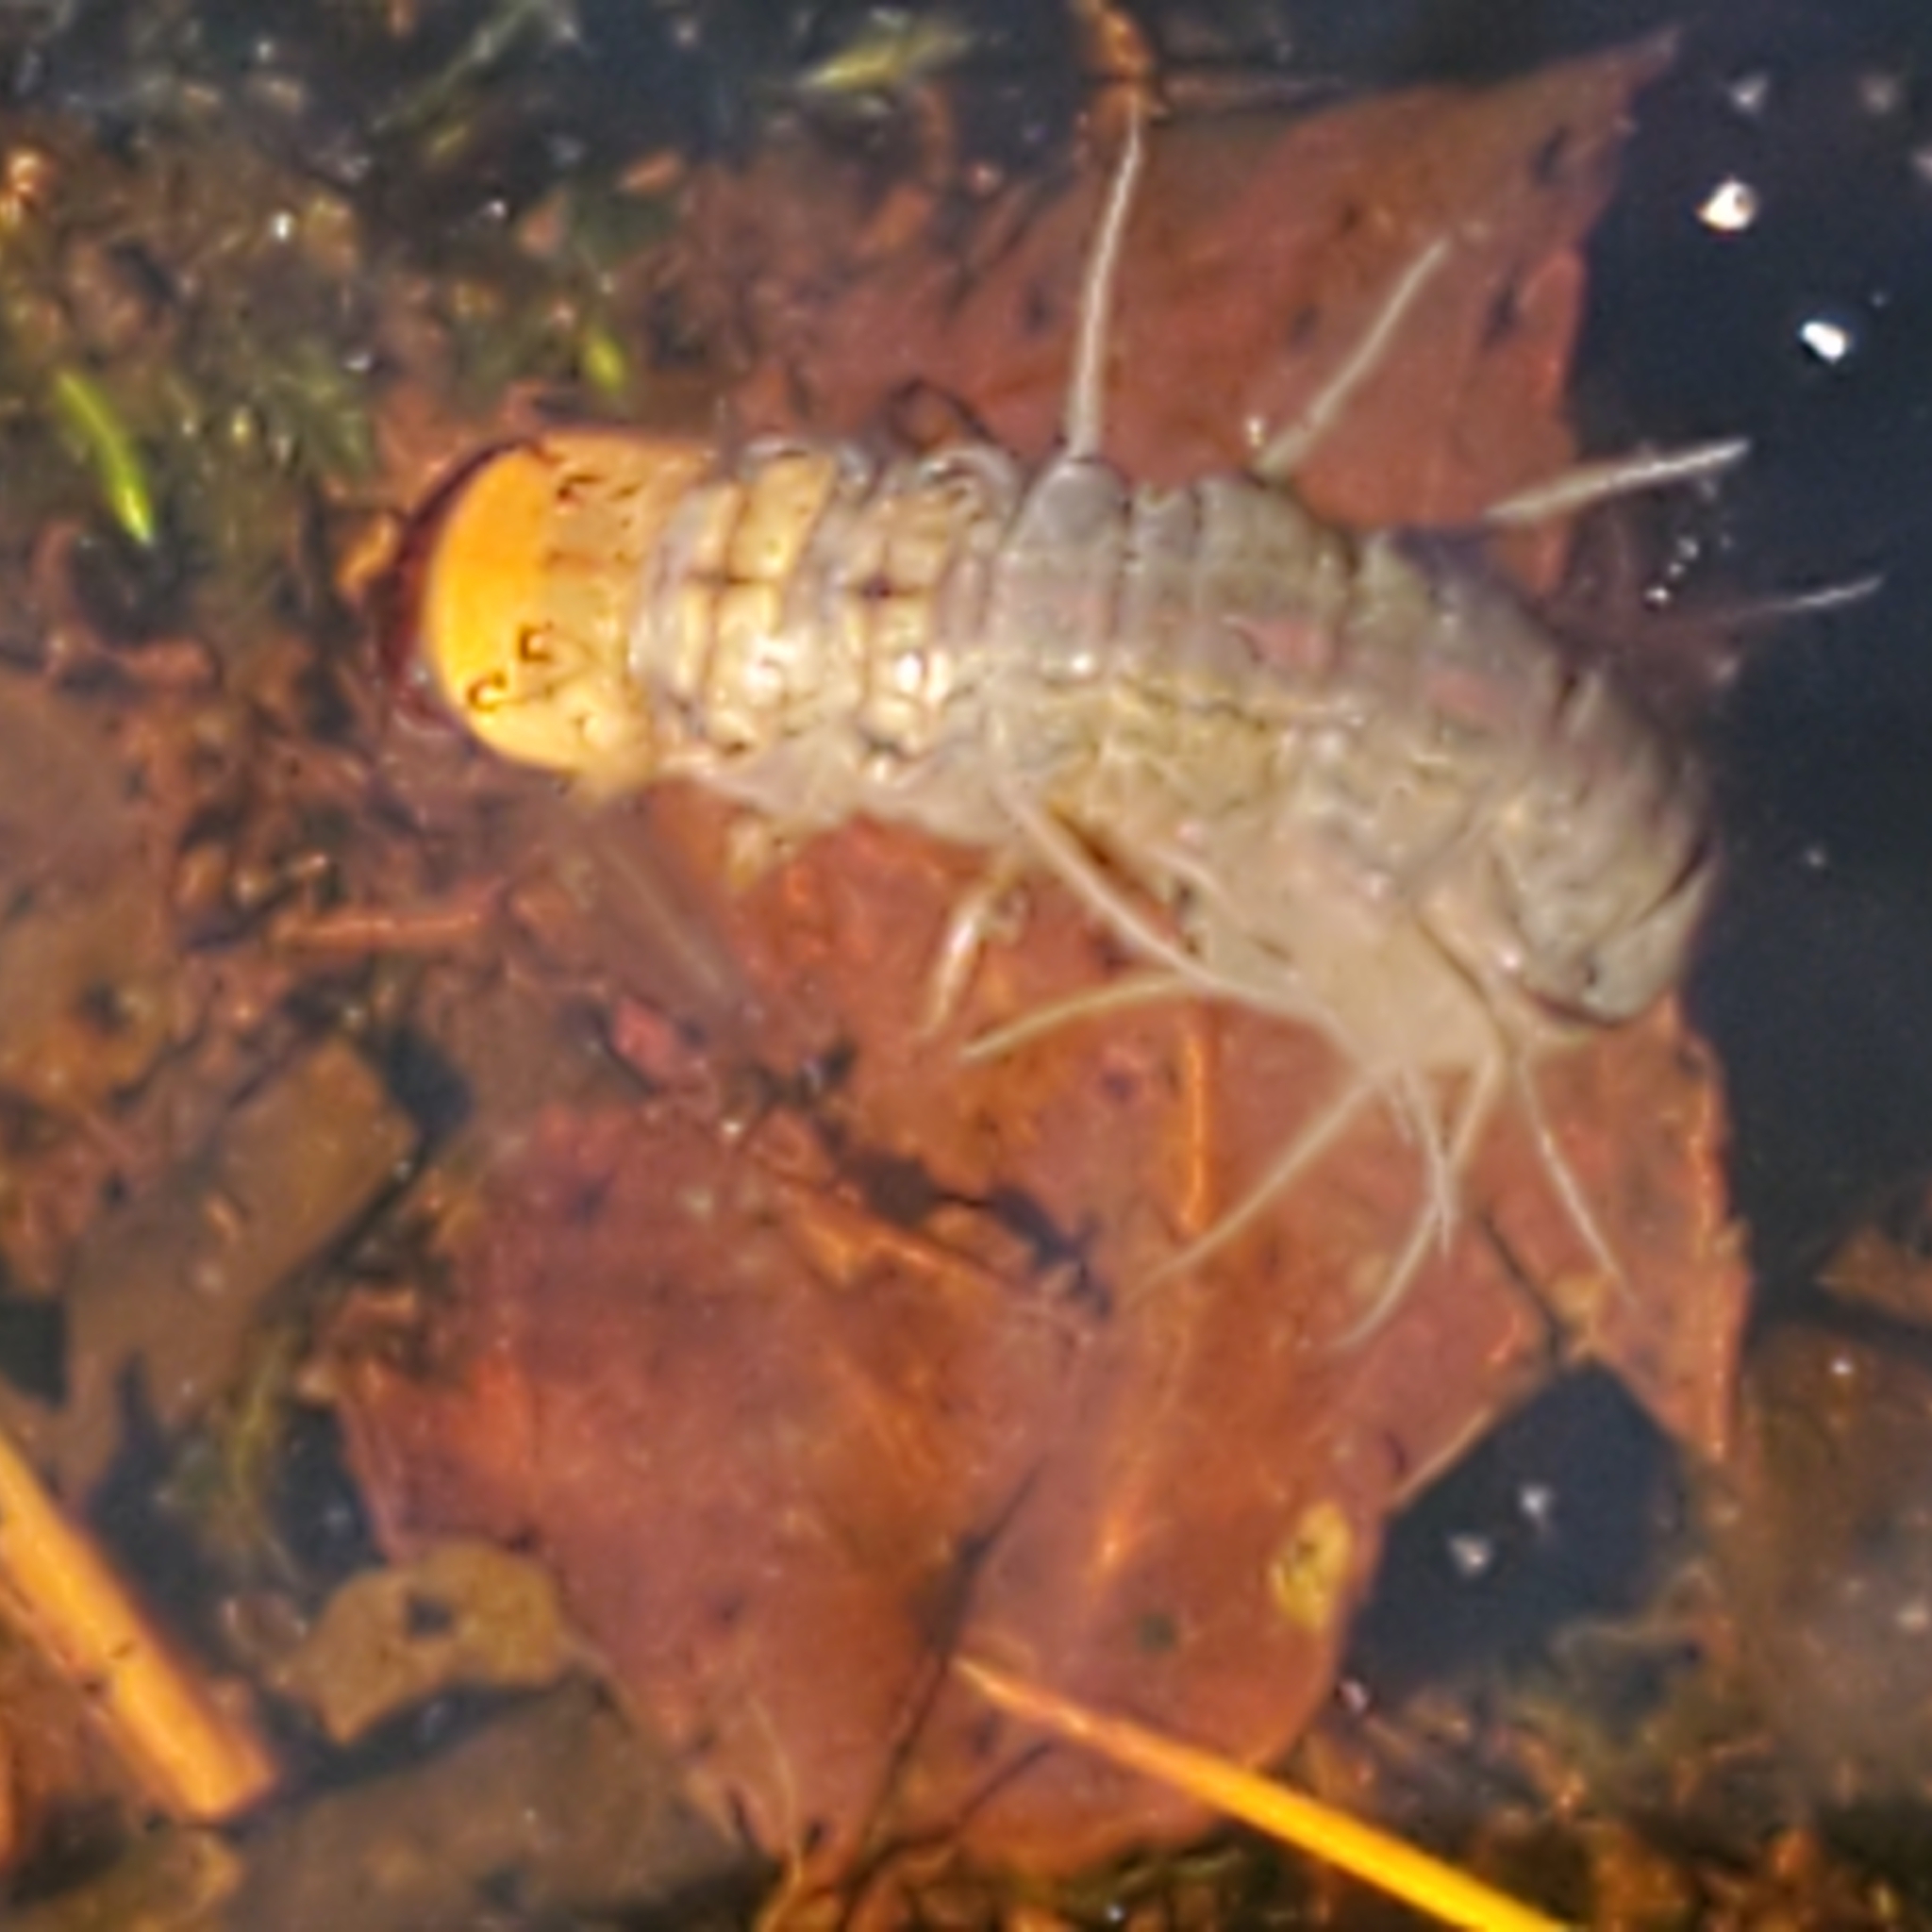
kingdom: Animalia
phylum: Arthropoda
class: Insecta
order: Megaloptera
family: Corydalidae
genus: Chauliodes
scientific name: Chauliodes pectinicornis
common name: Summer fishfly
